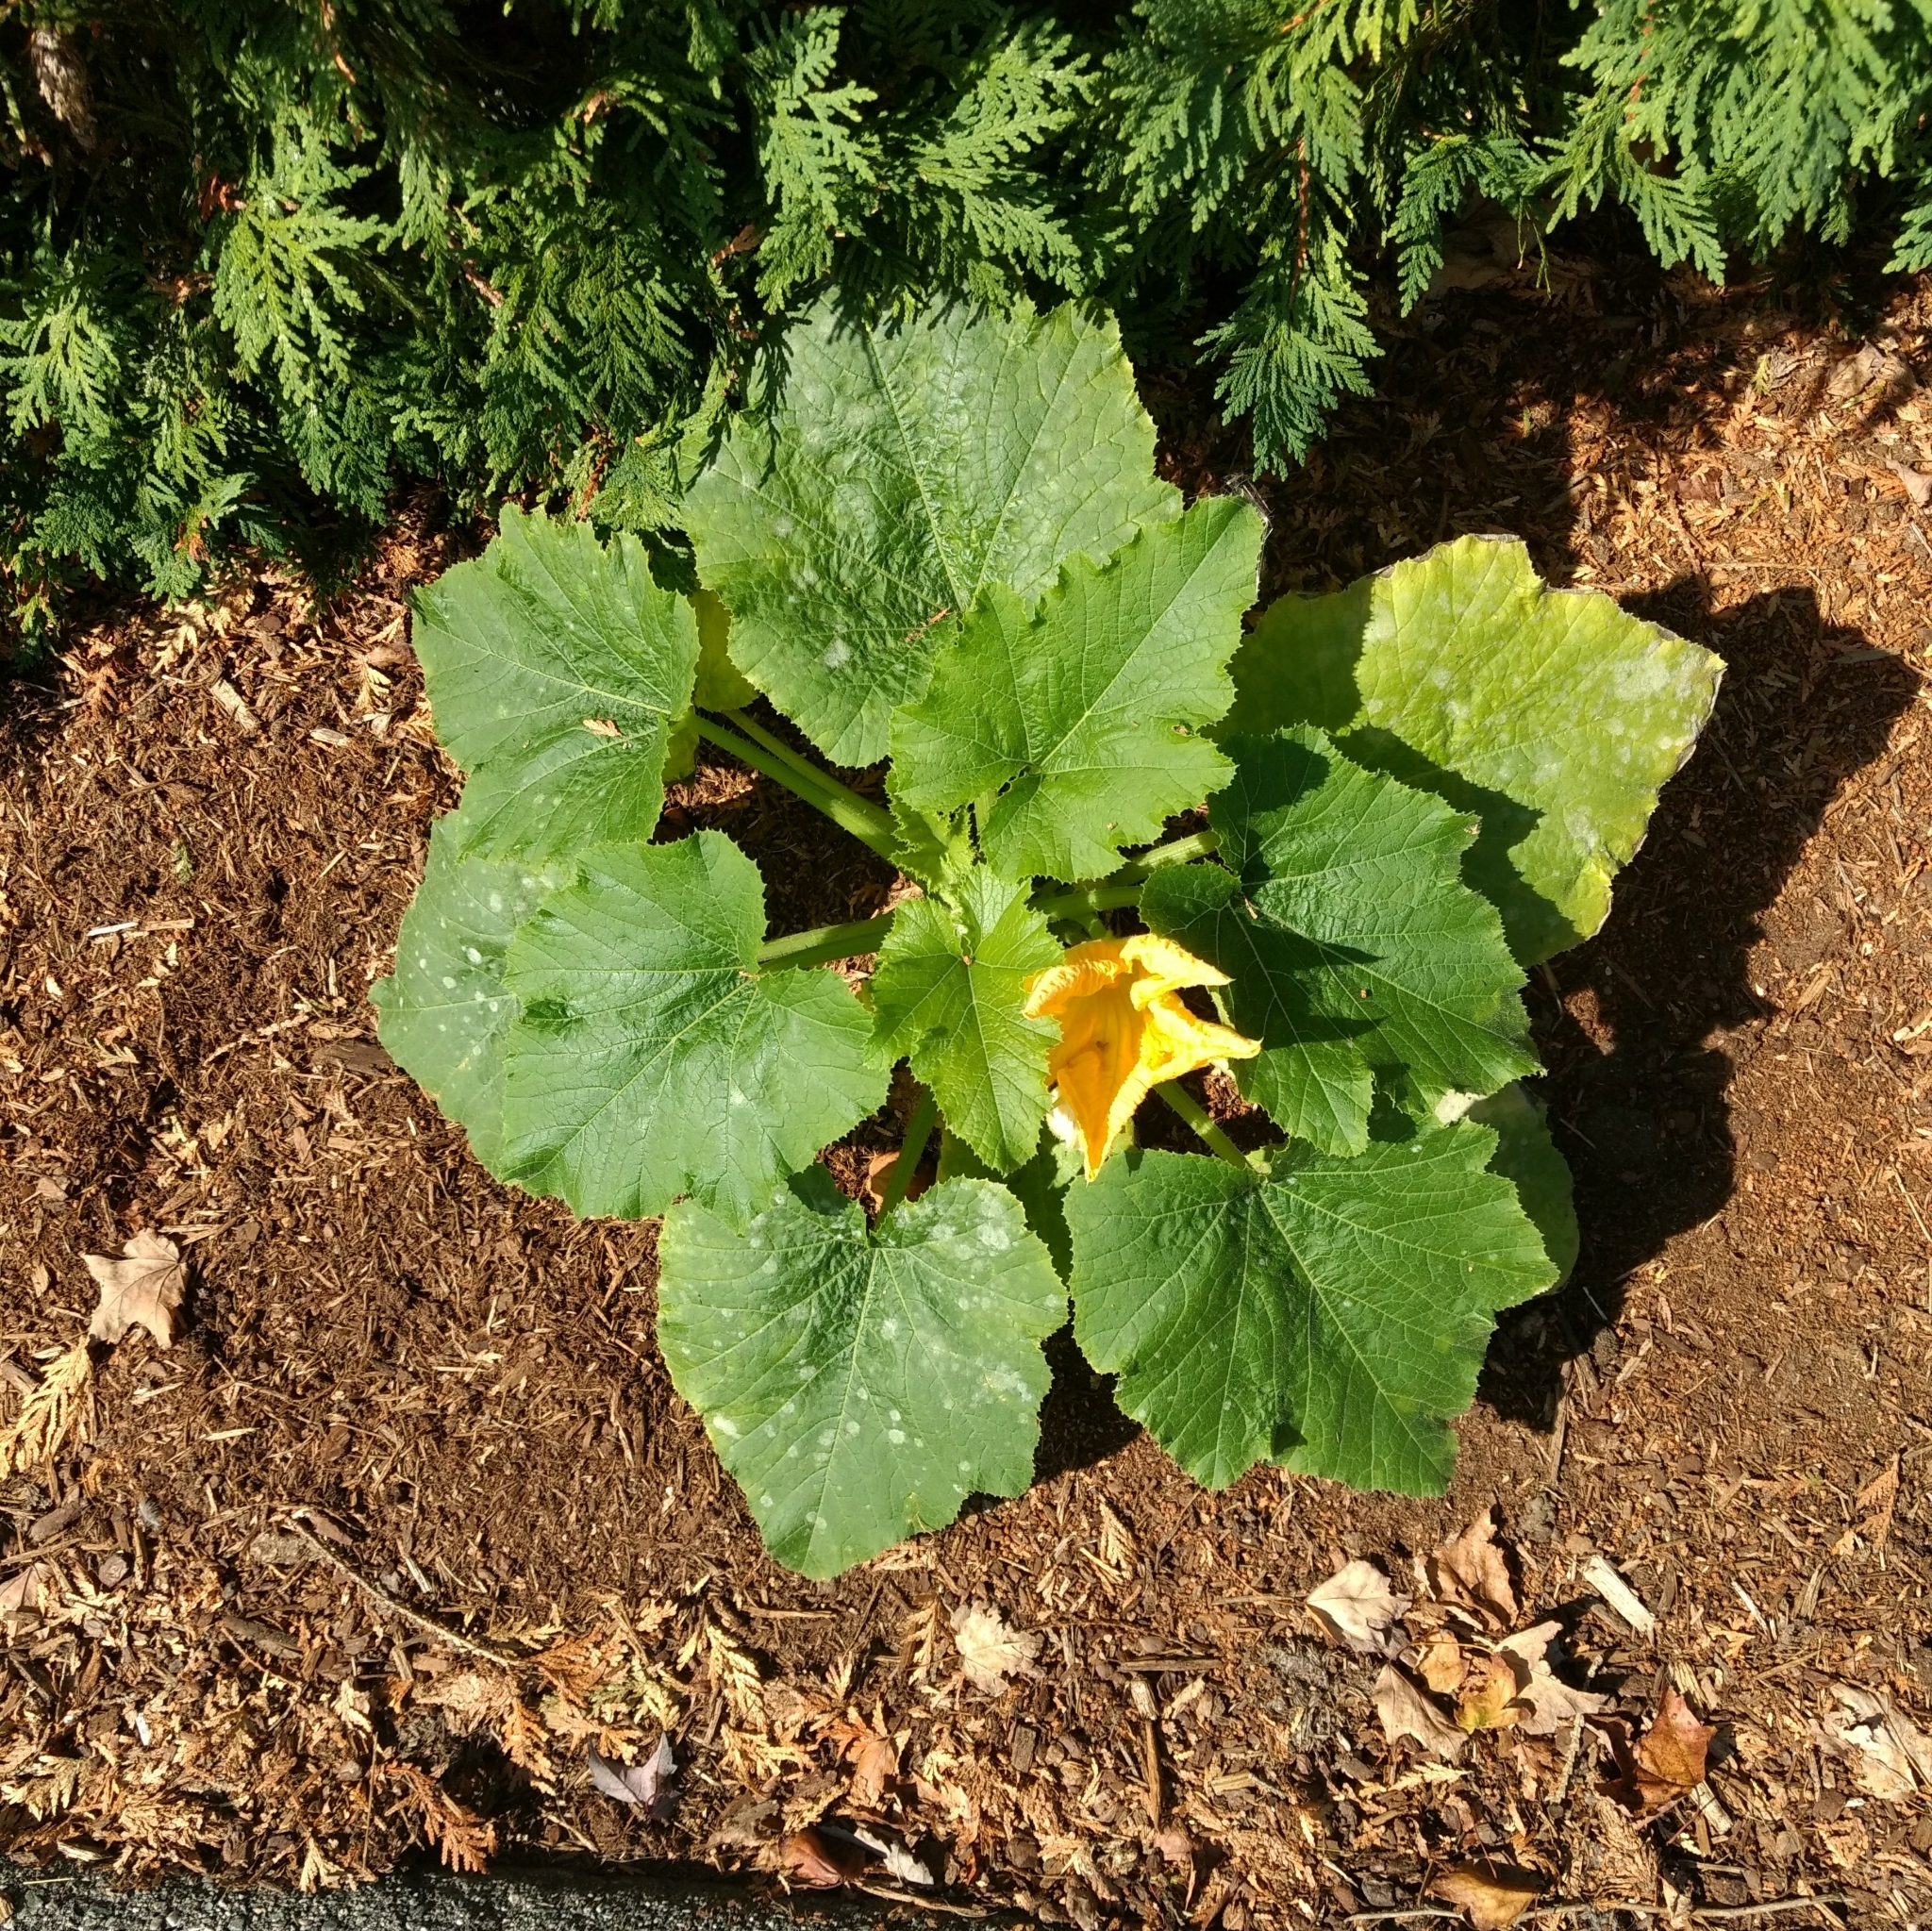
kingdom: Plantae
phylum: Tracheophyta
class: Magnoliopsida
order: Cucurbitales
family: Cucurbitaceae
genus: Cucurbita
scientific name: Cucurbita pepo
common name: Marrow
